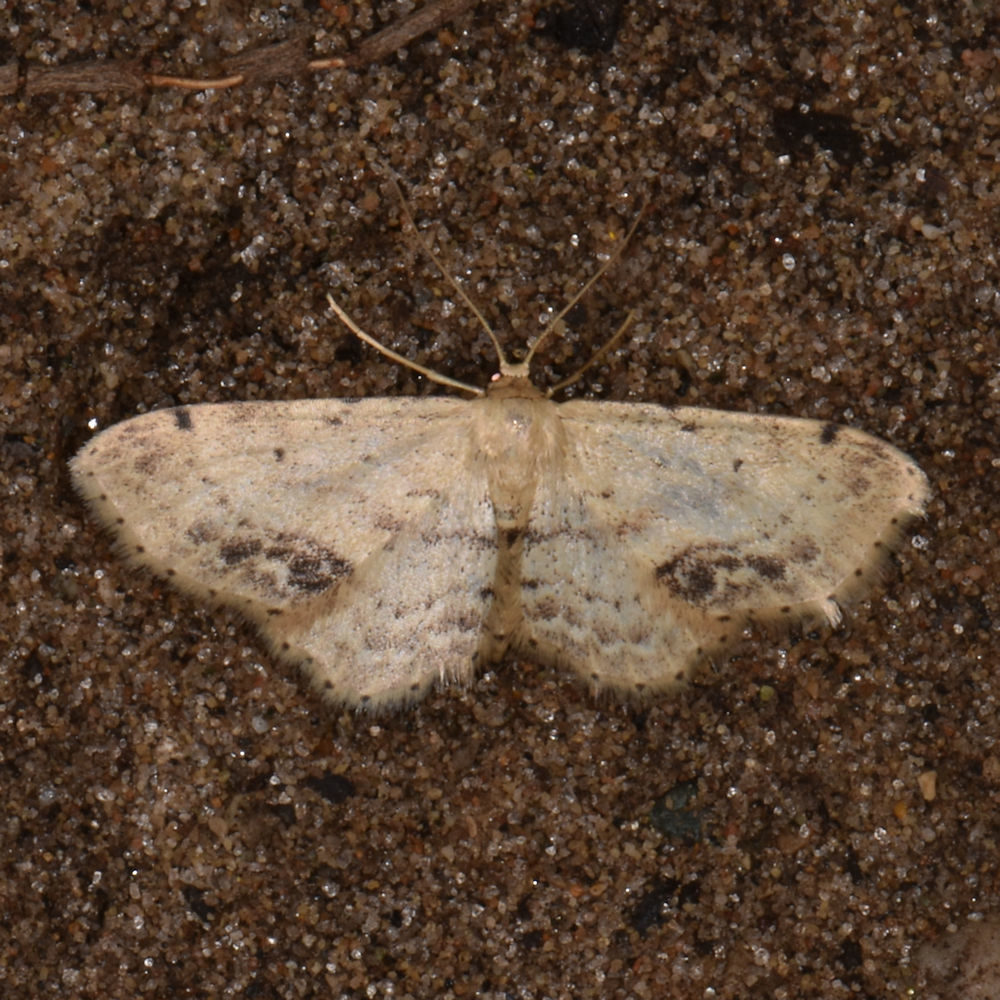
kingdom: Animalia
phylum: Arthropoda
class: Insecta
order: Lepidoptera
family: Geometridae
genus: Idaea
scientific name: Idaea dimidiata
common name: Single-dotted wave
